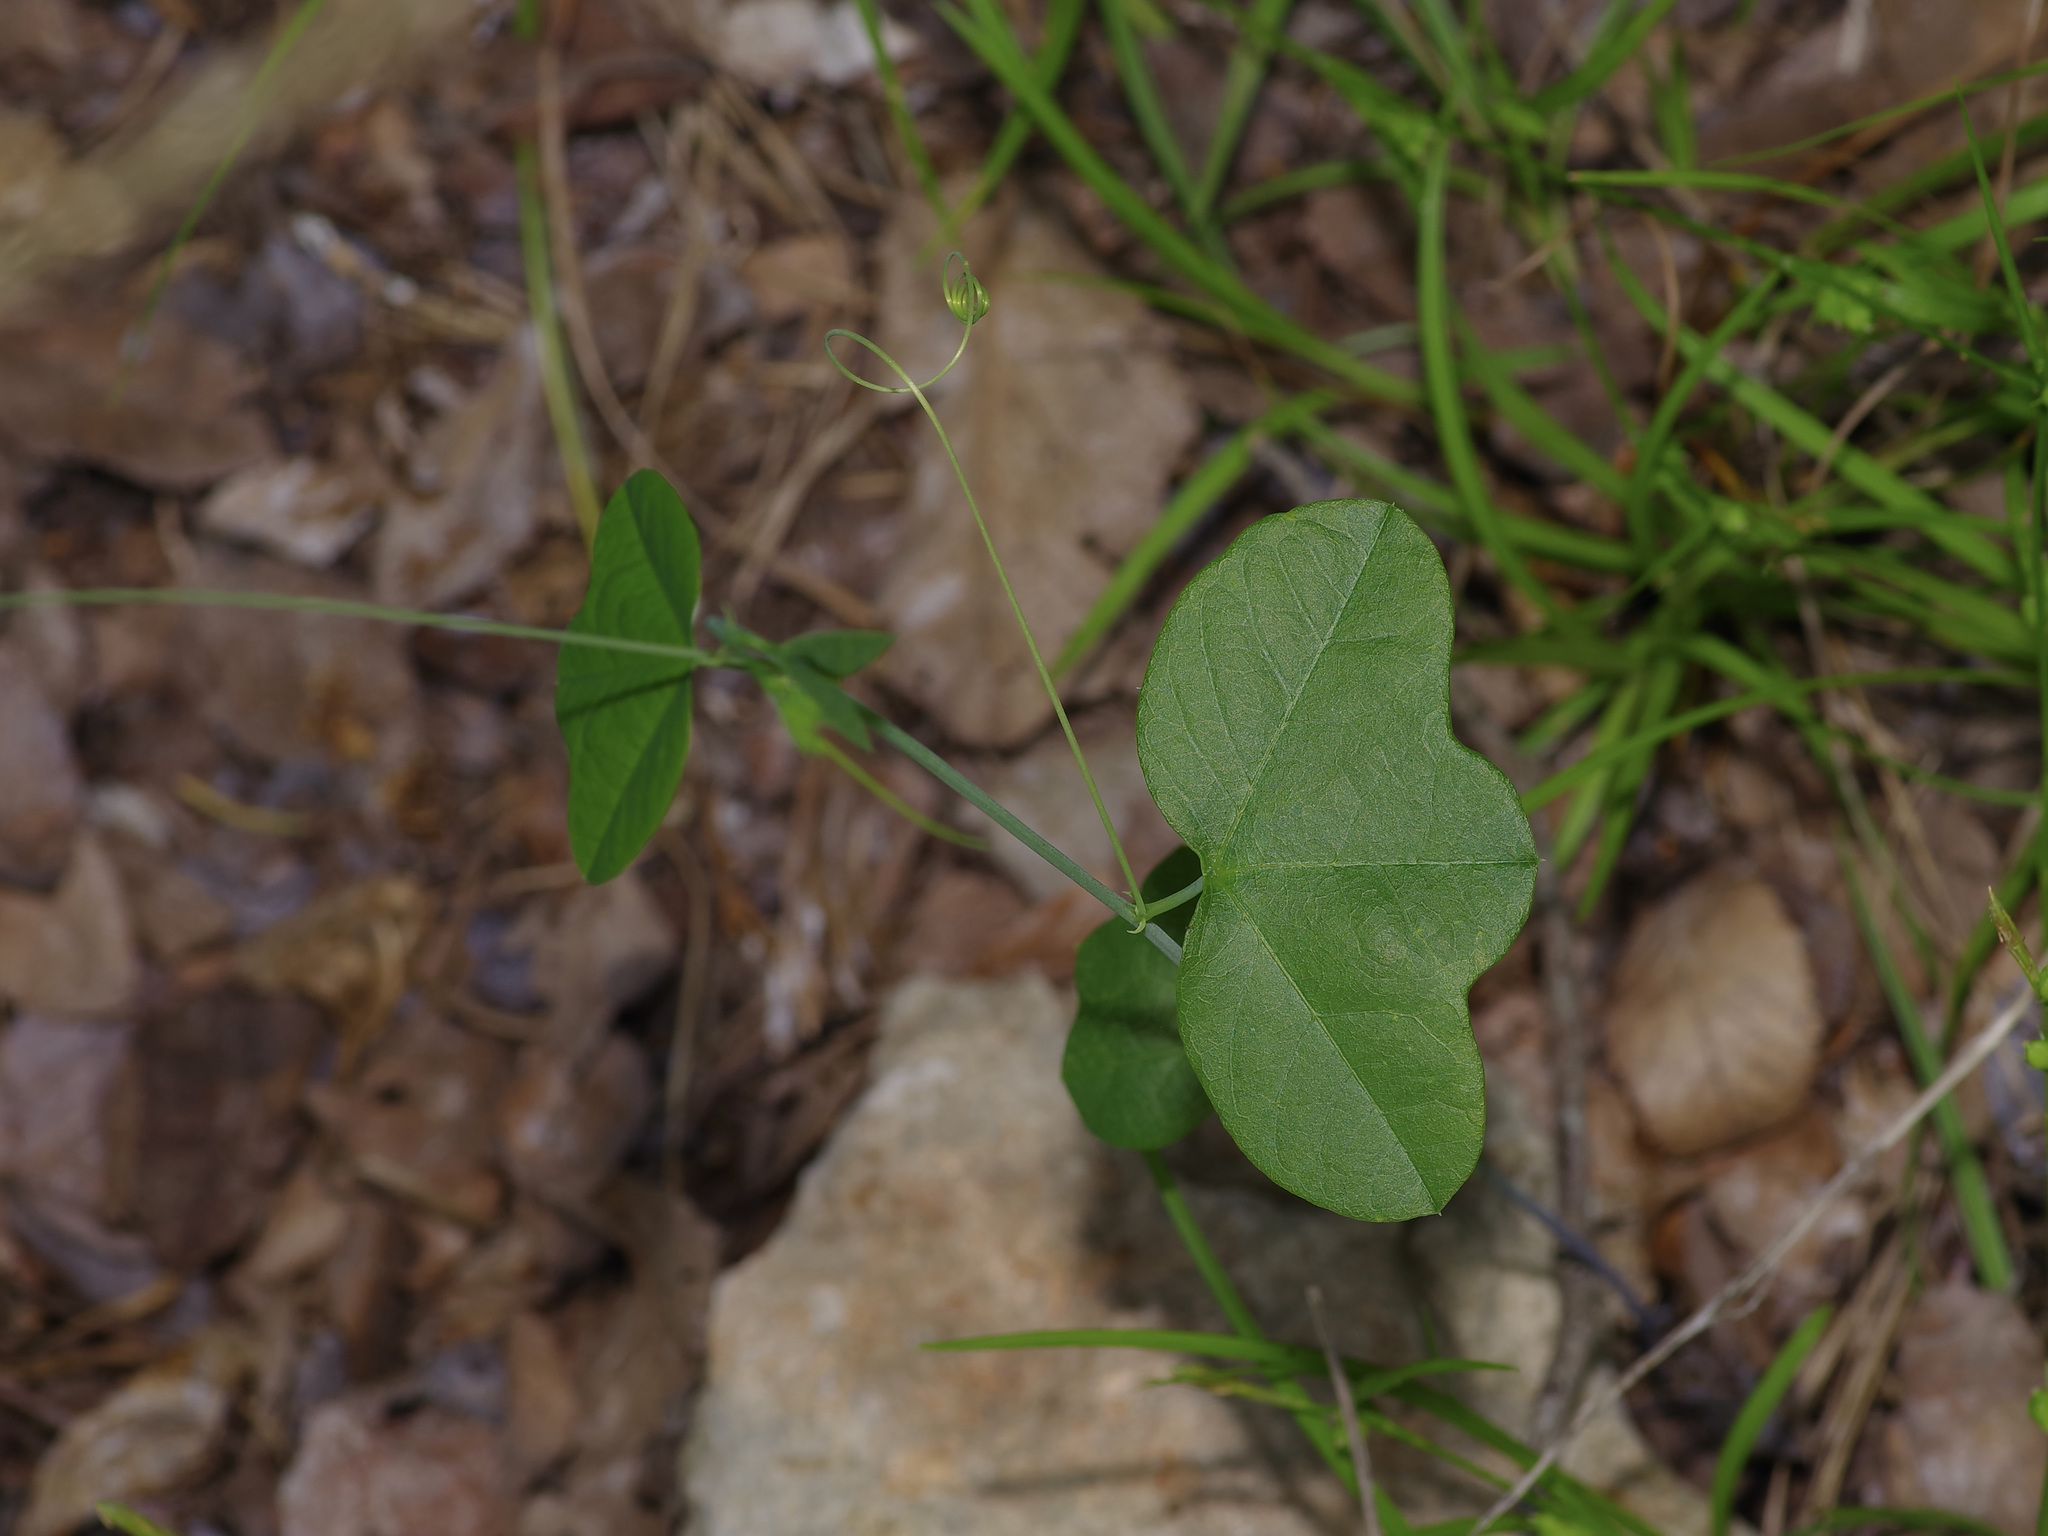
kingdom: Plantae
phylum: Tracheophyta
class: Magnoliopsida
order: Malpighiales
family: Passifloraceae
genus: Passiflora
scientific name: Passiflora lutea
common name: Yellow passionflower
